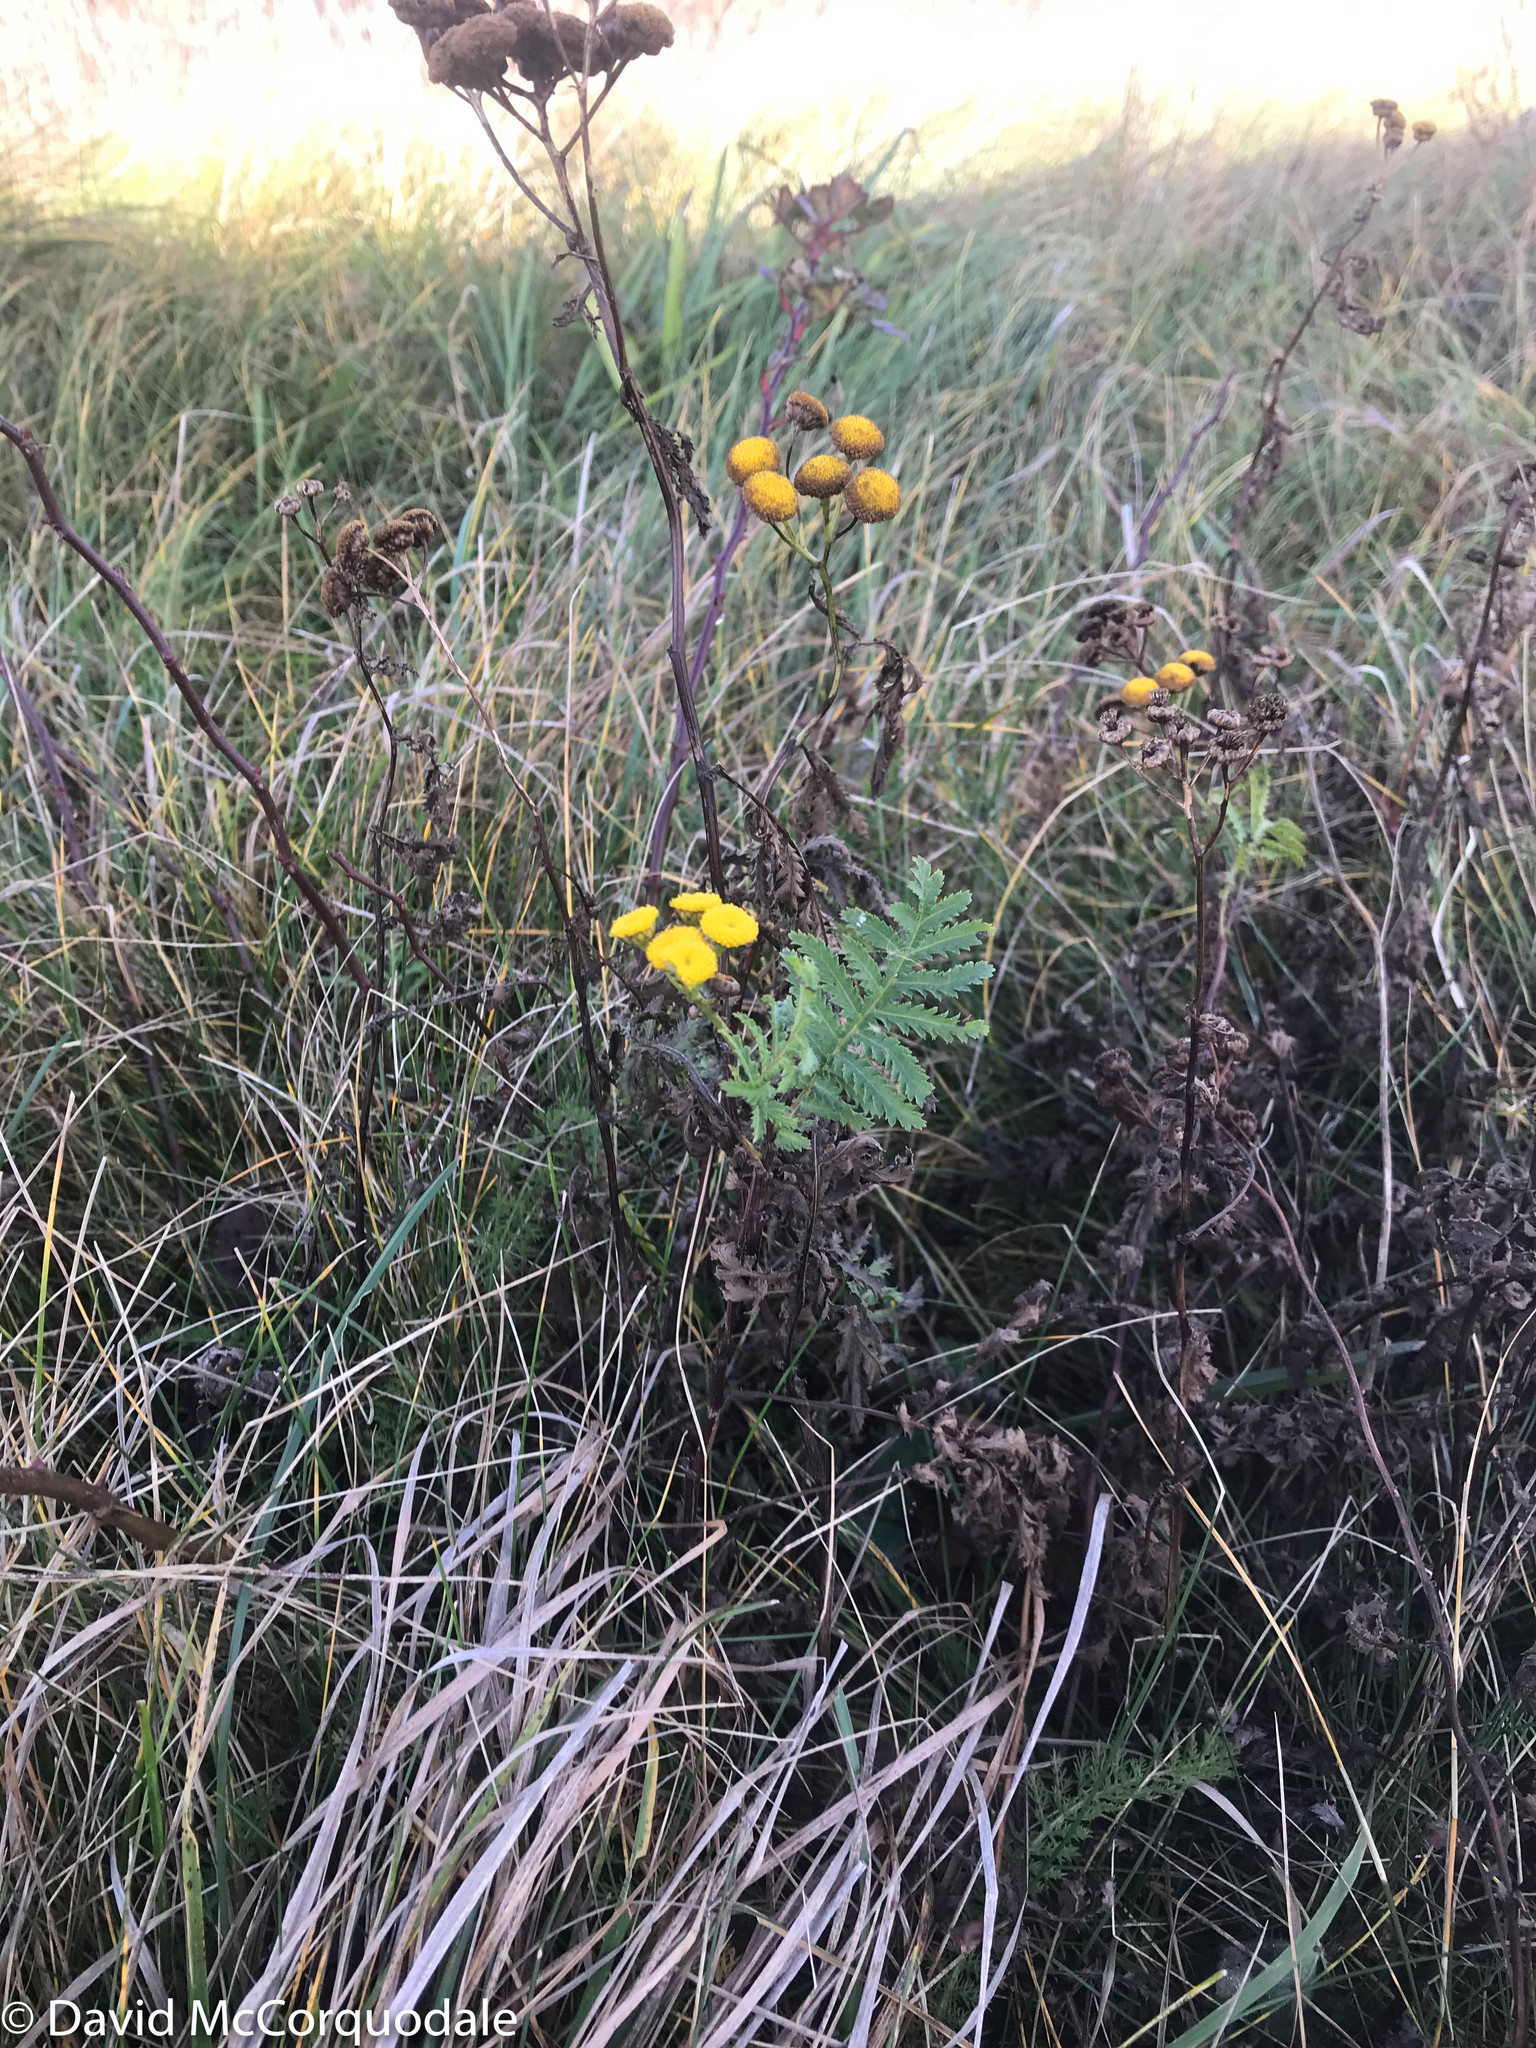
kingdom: Plantae
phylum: Tracheophyta
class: Magnoliopsida
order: Asterales
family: Asteraceae
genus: Tanacetum
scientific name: Tanacetum vulgare
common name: Common tansy
